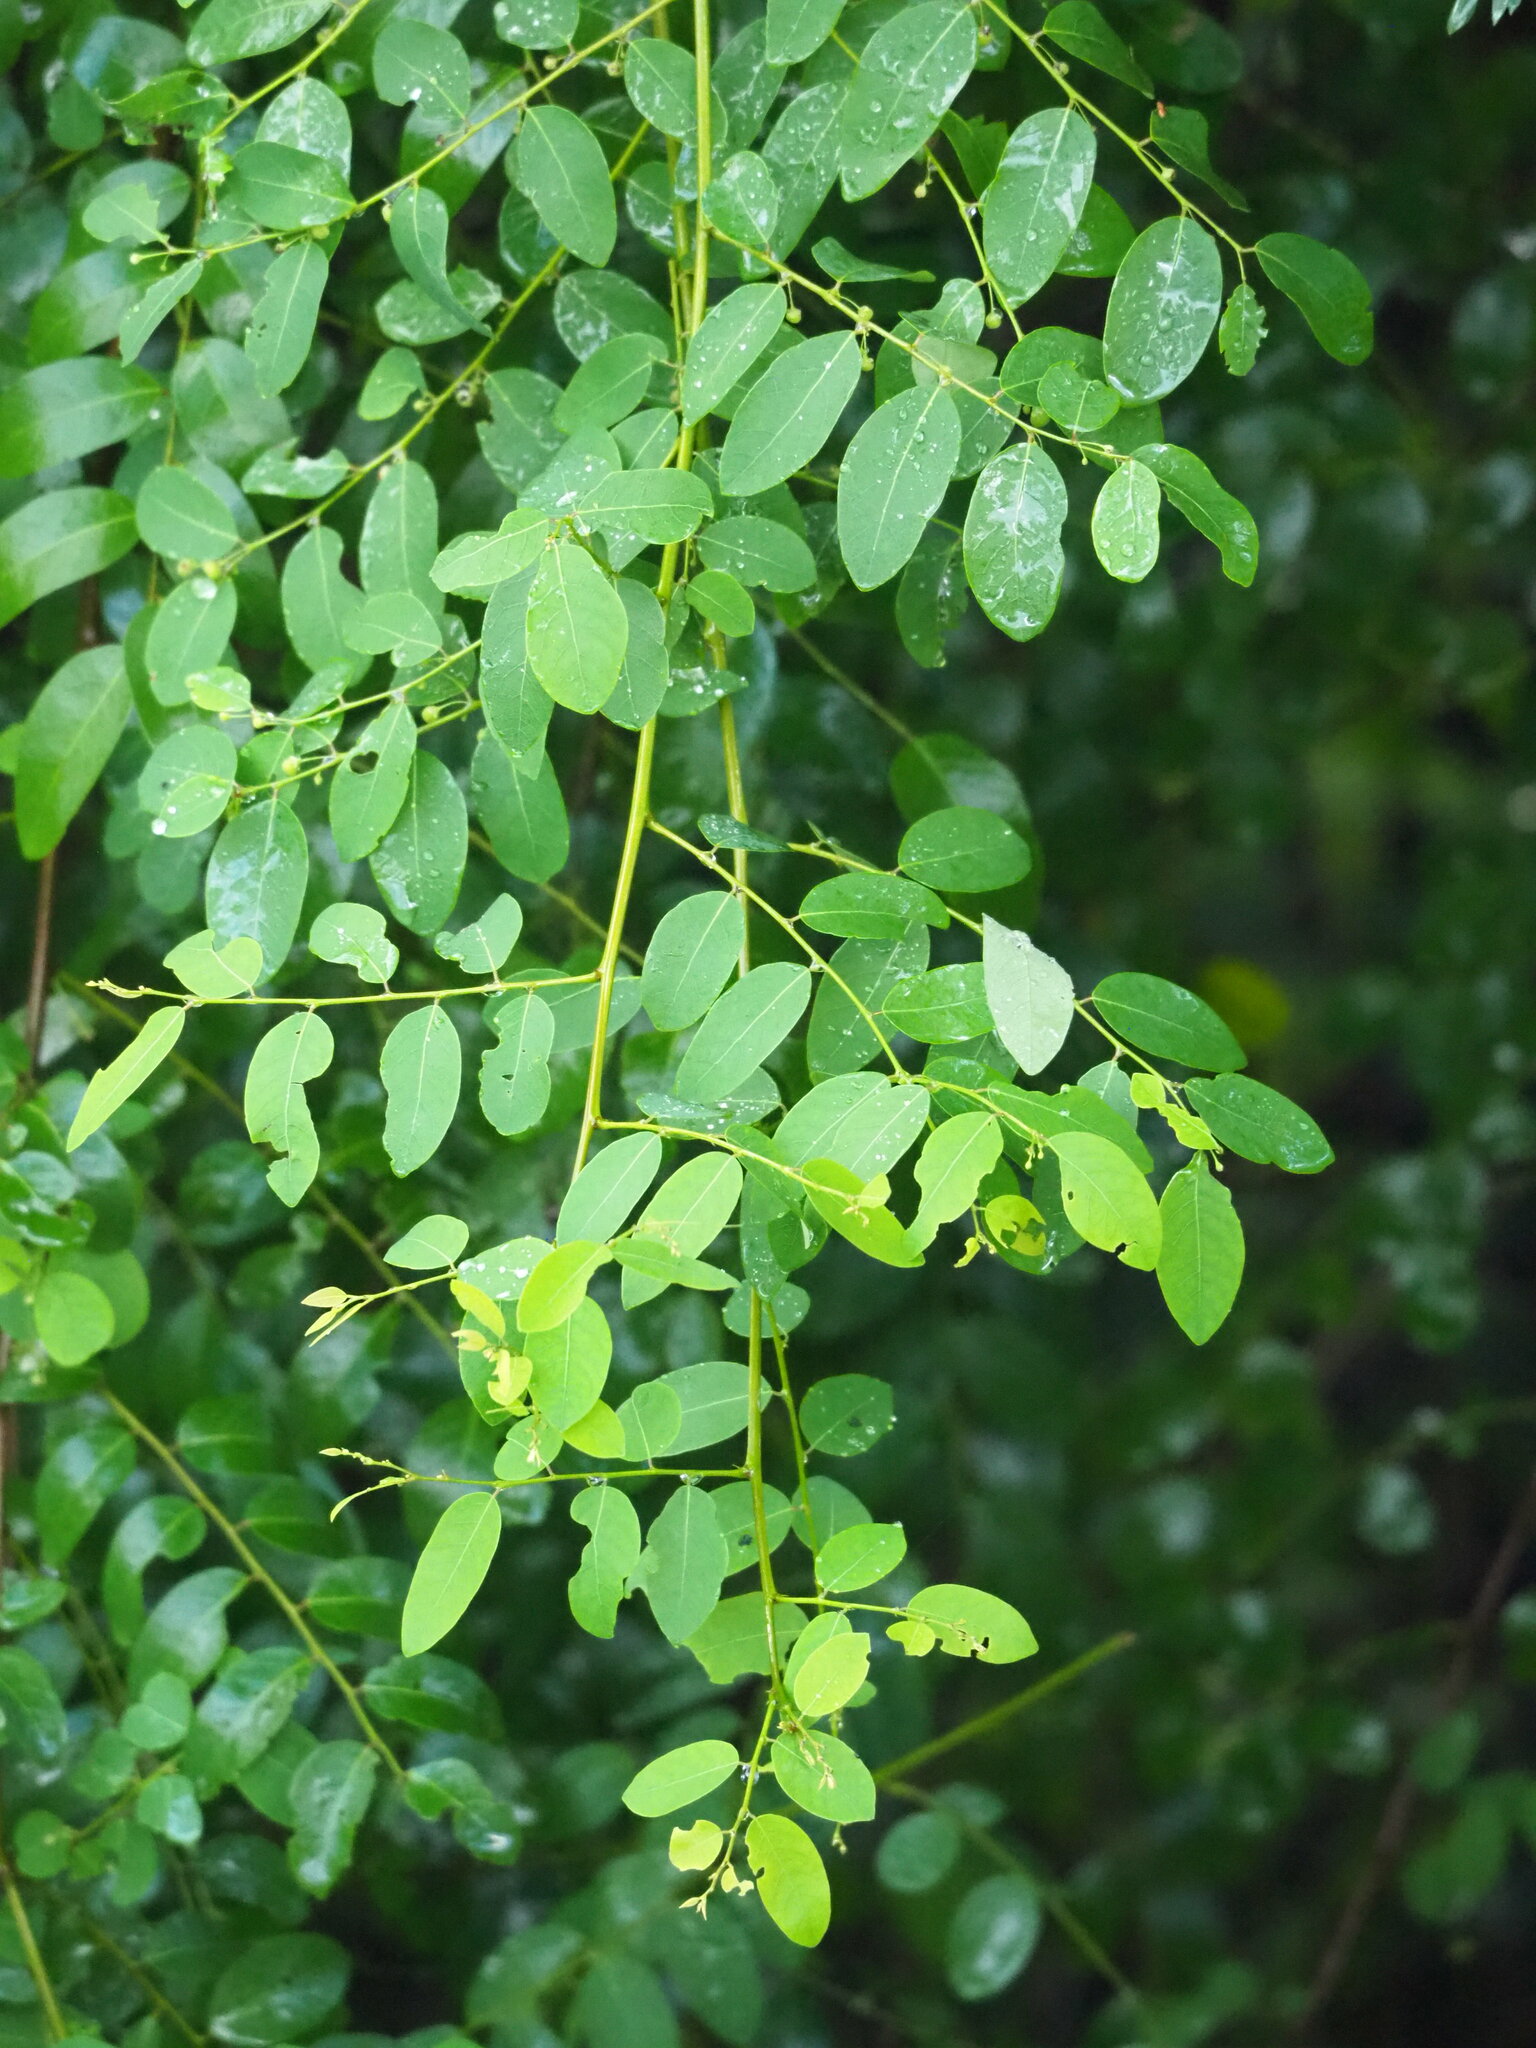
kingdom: Plantae
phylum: Tracheophyta
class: Magnoliopsida
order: Malpighiales
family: Phyllanthaceae
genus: Phyllanthus
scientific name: Phyllanthus reticulatus
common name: Potato bush
